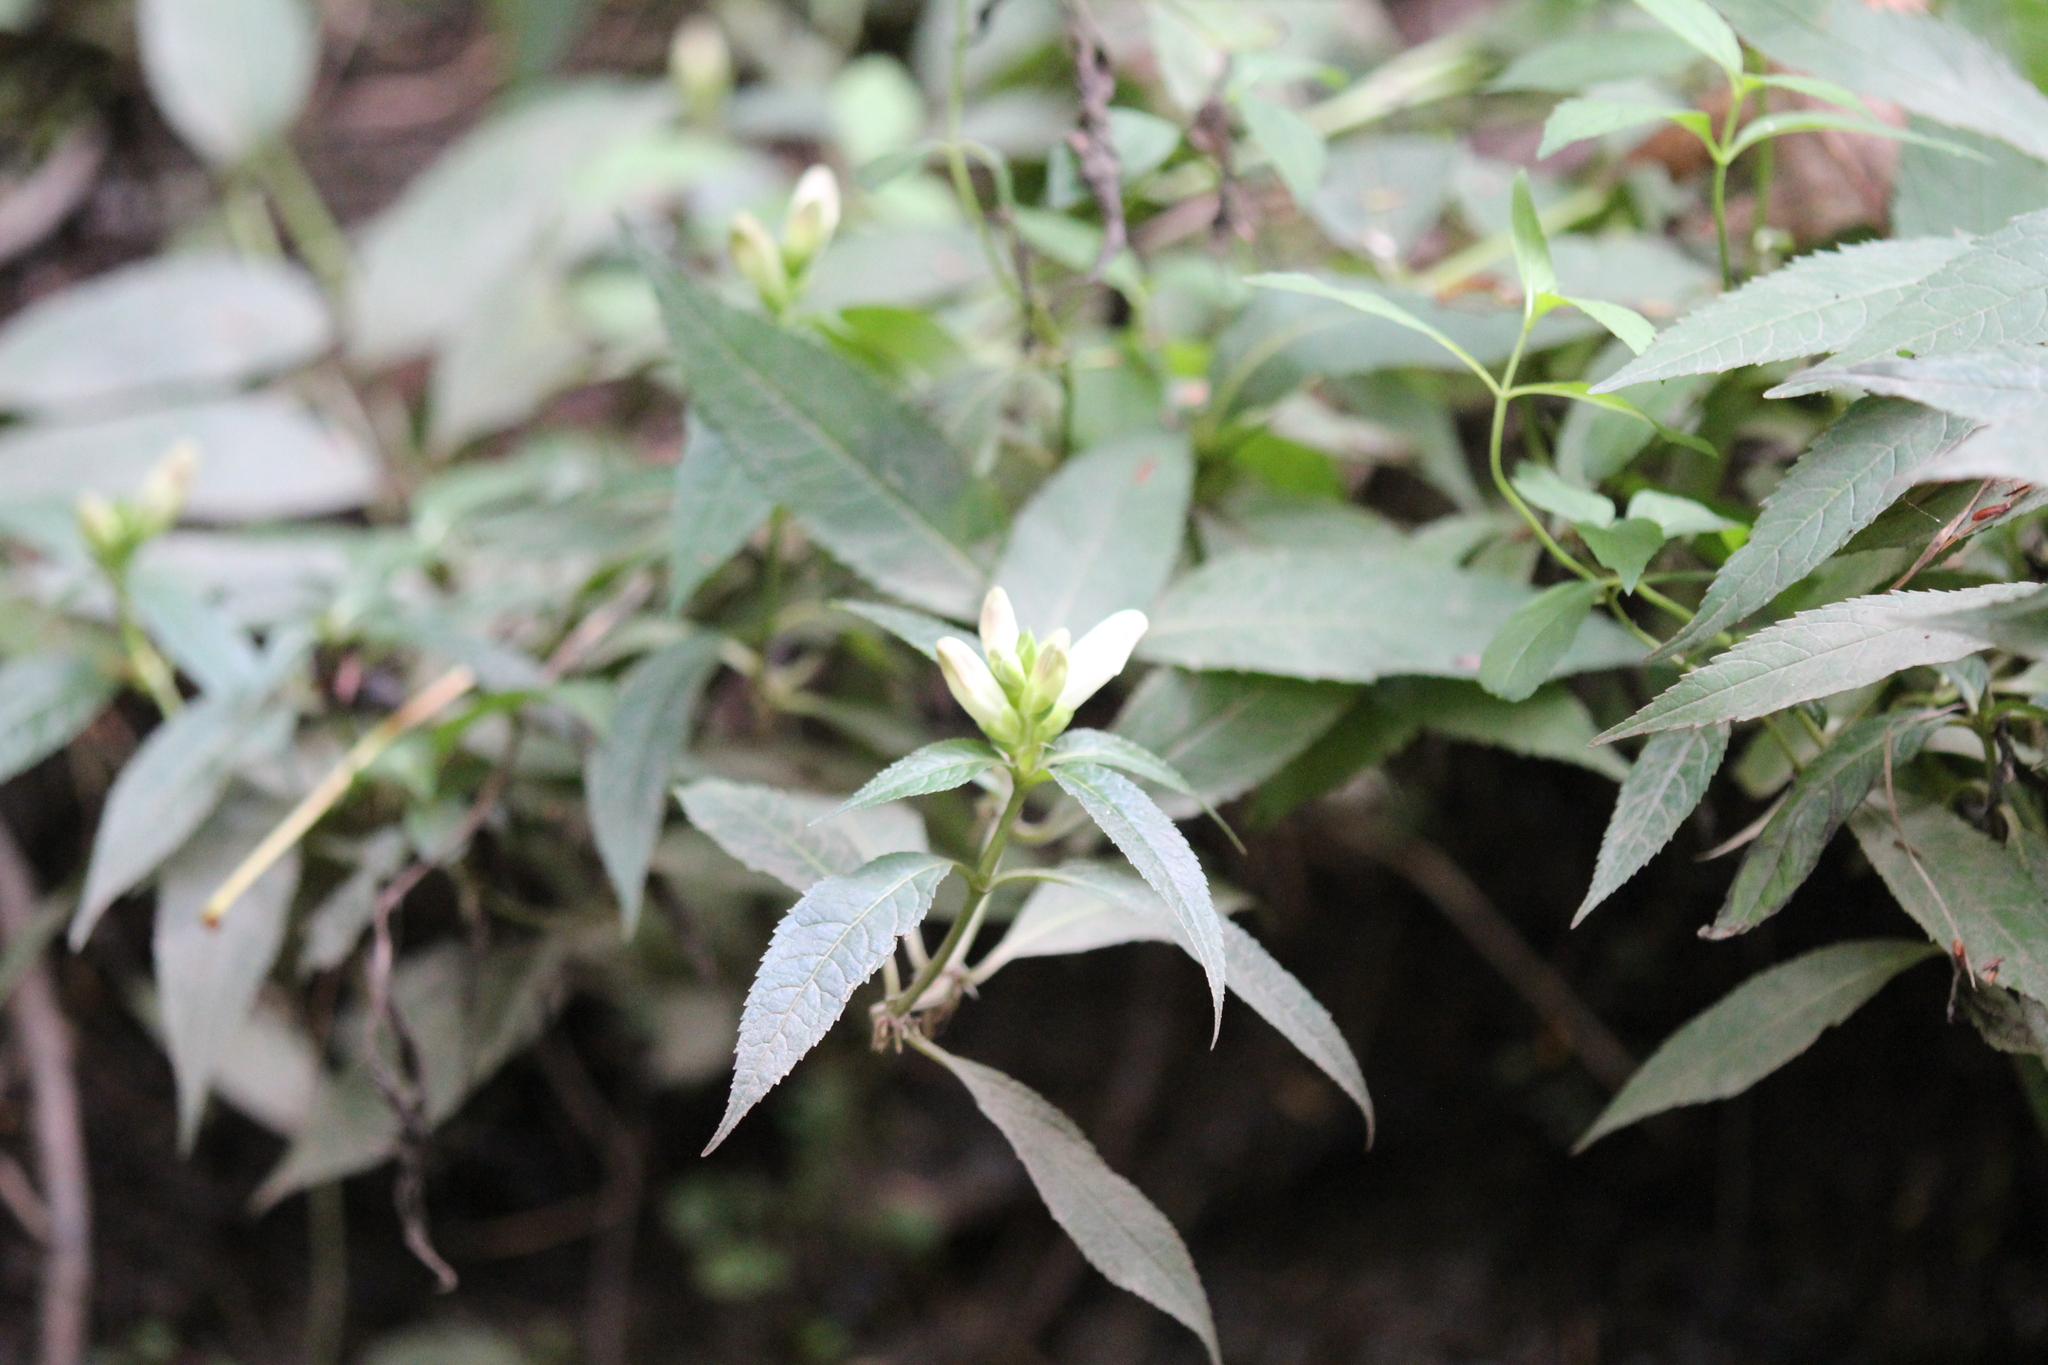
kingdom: Plantae
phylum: Tracheophyta
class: Magnoliopsida
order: Lamiales
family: Plantaginaceae
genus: Chelone
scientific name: Chelone glabra
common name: Snakehead
